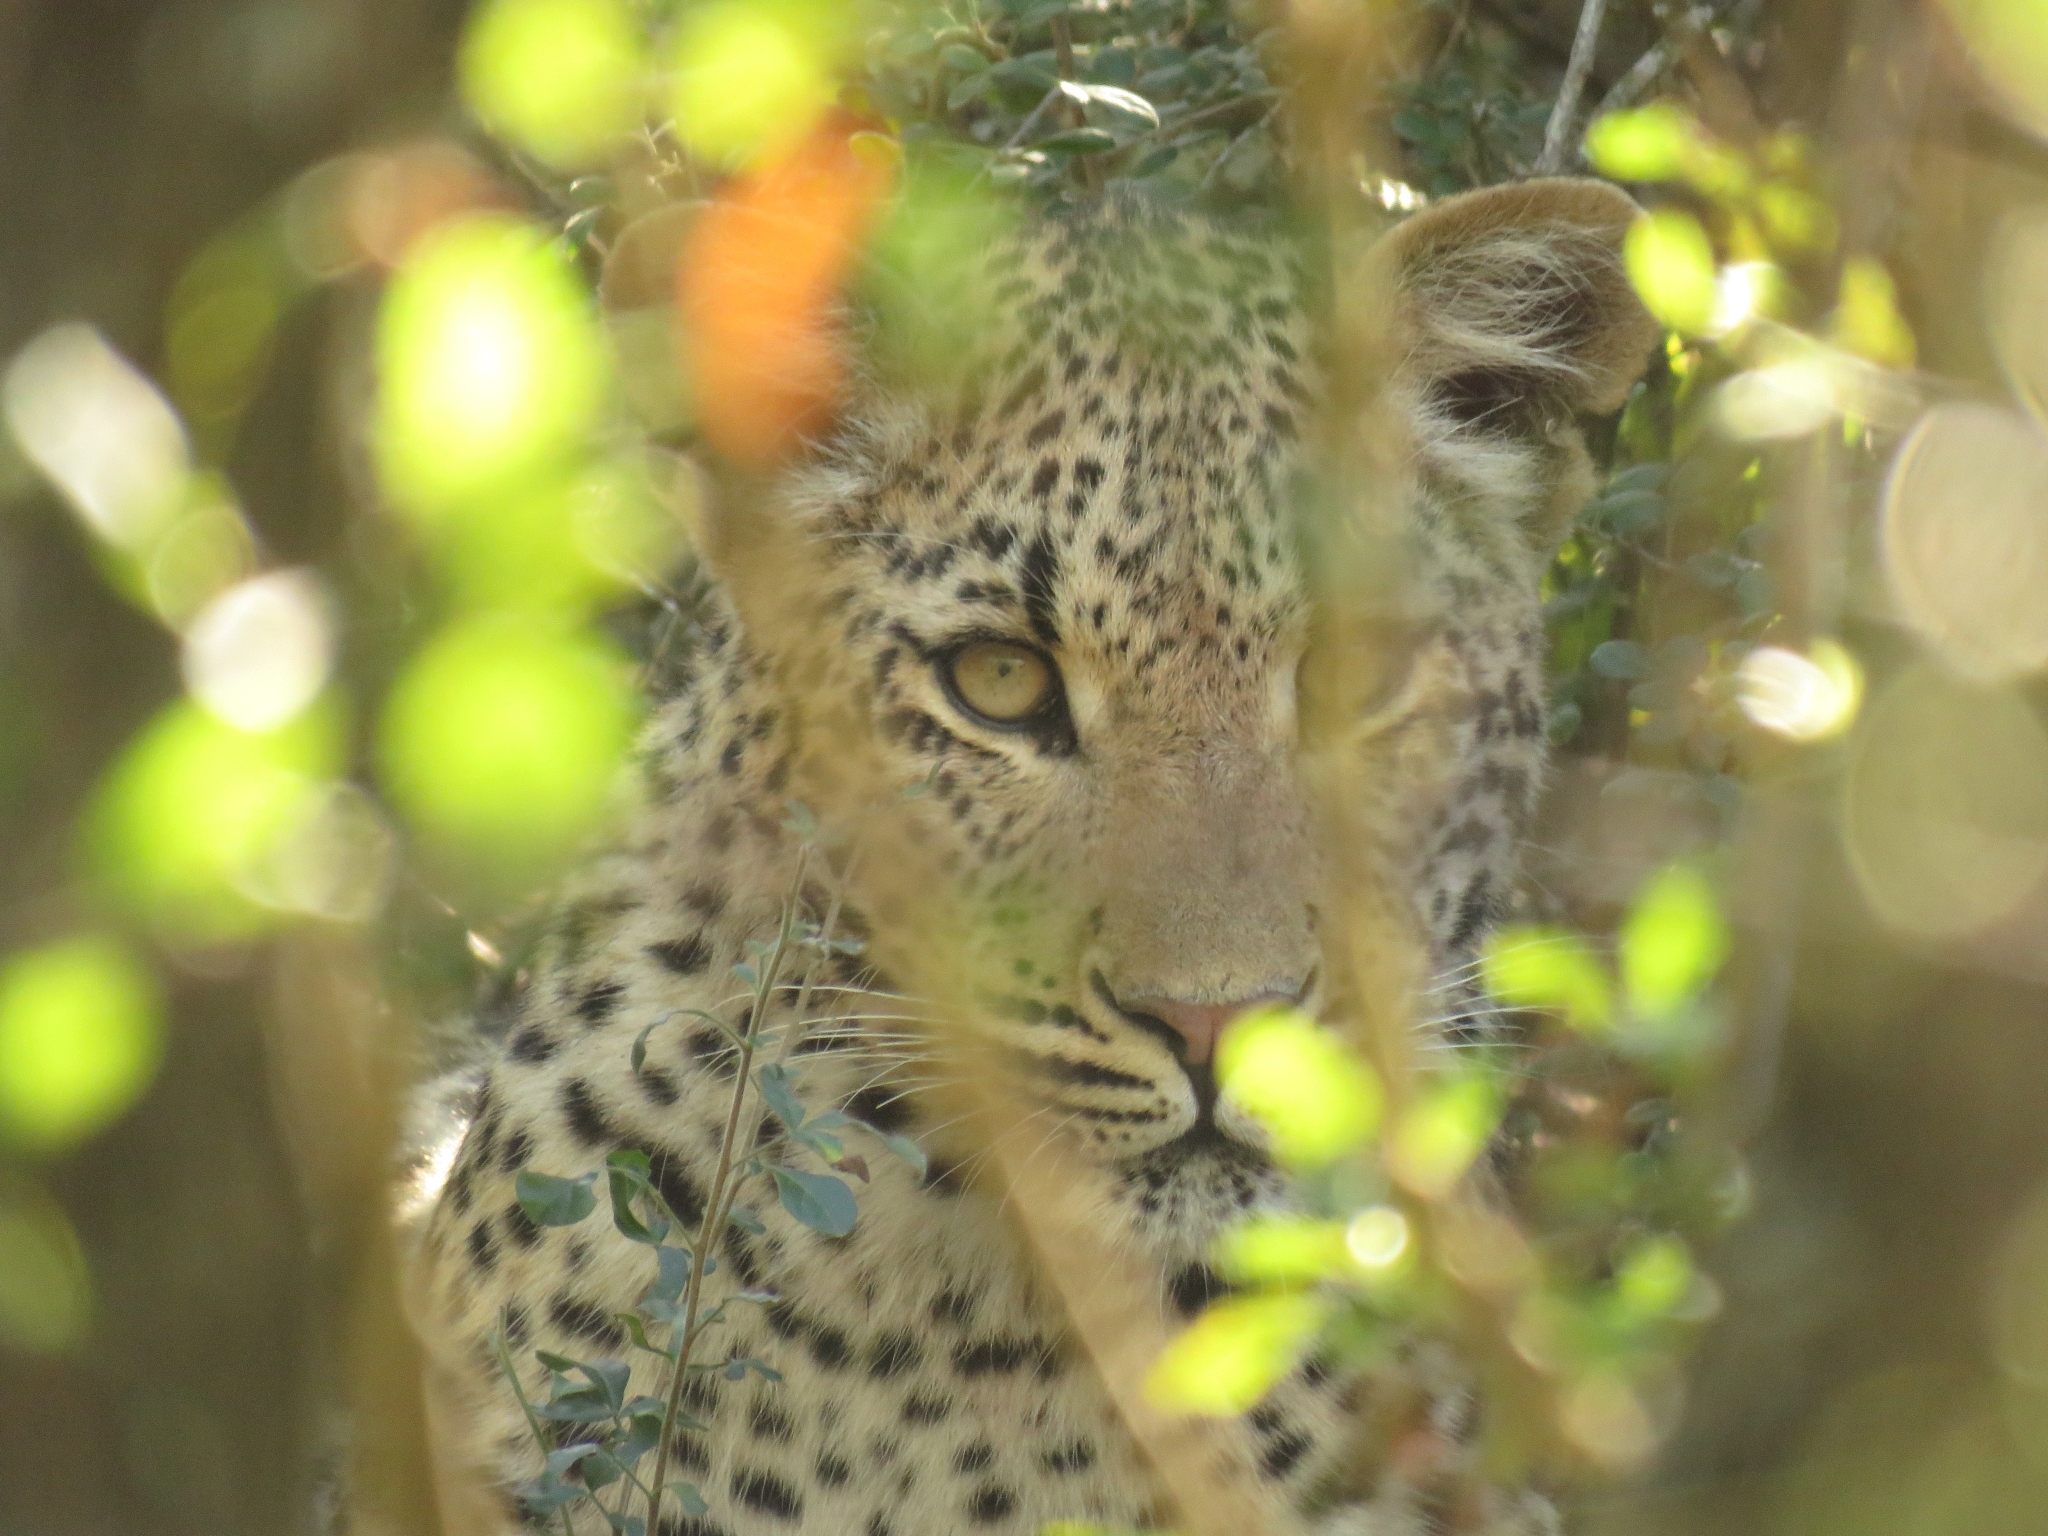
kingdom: Animalia
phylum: Chordata
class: Mammalia
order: Carnivora
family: Felidae
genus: Panthera
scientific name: Panthera pardus
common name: Leopard
